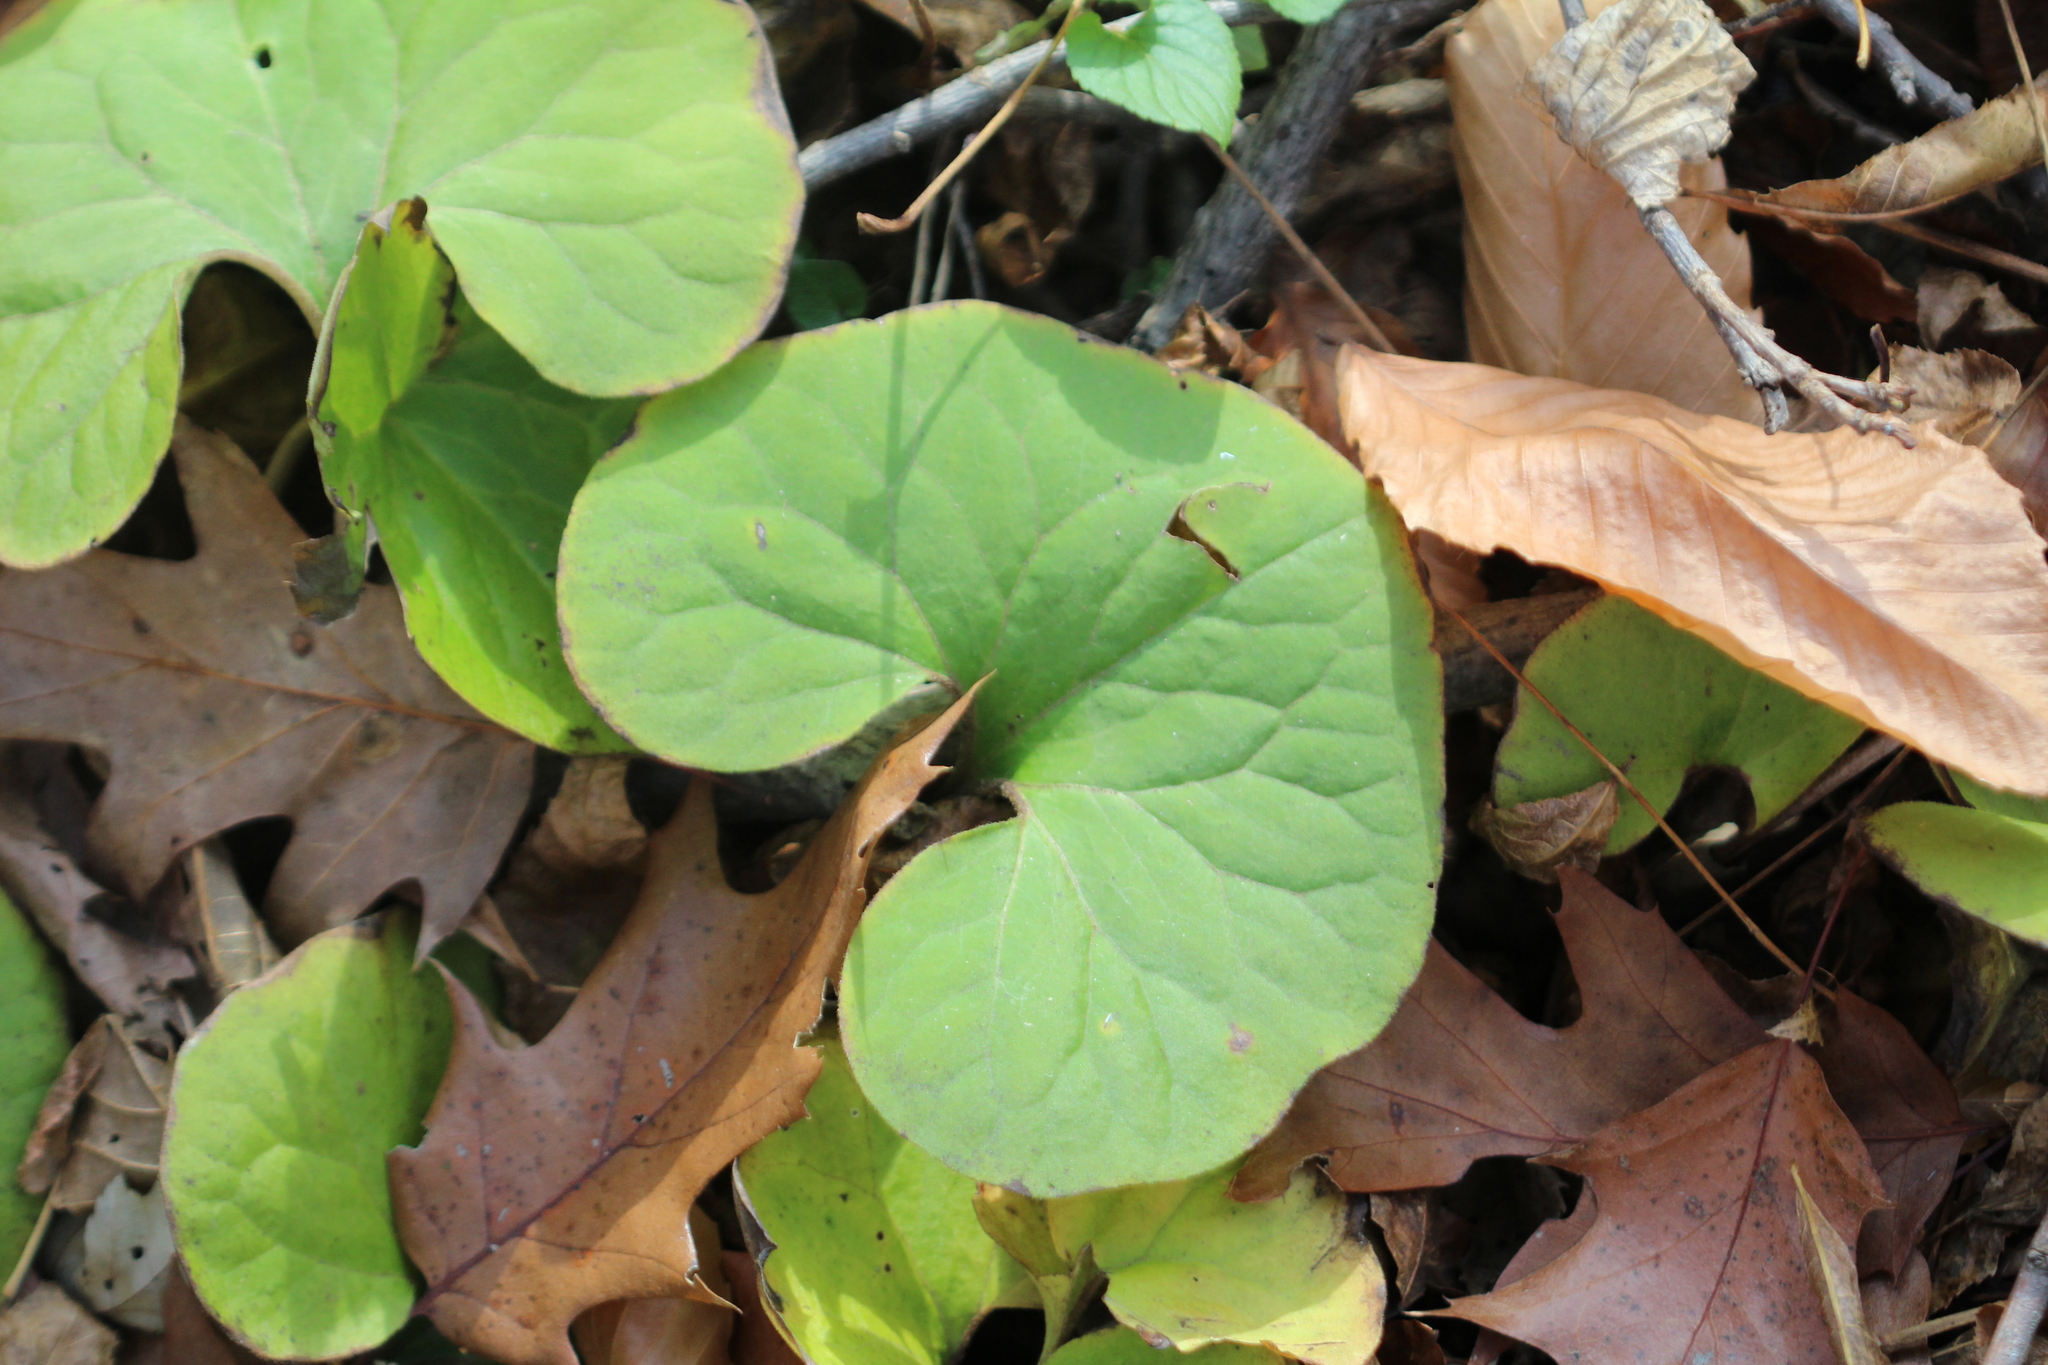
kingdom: Plantae
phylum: Tracheophyta
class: Magnoliopsida
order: Piperales
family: Aristolochiaceae
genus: Asarum
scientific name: Asarum canadense
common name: Wild ginger
